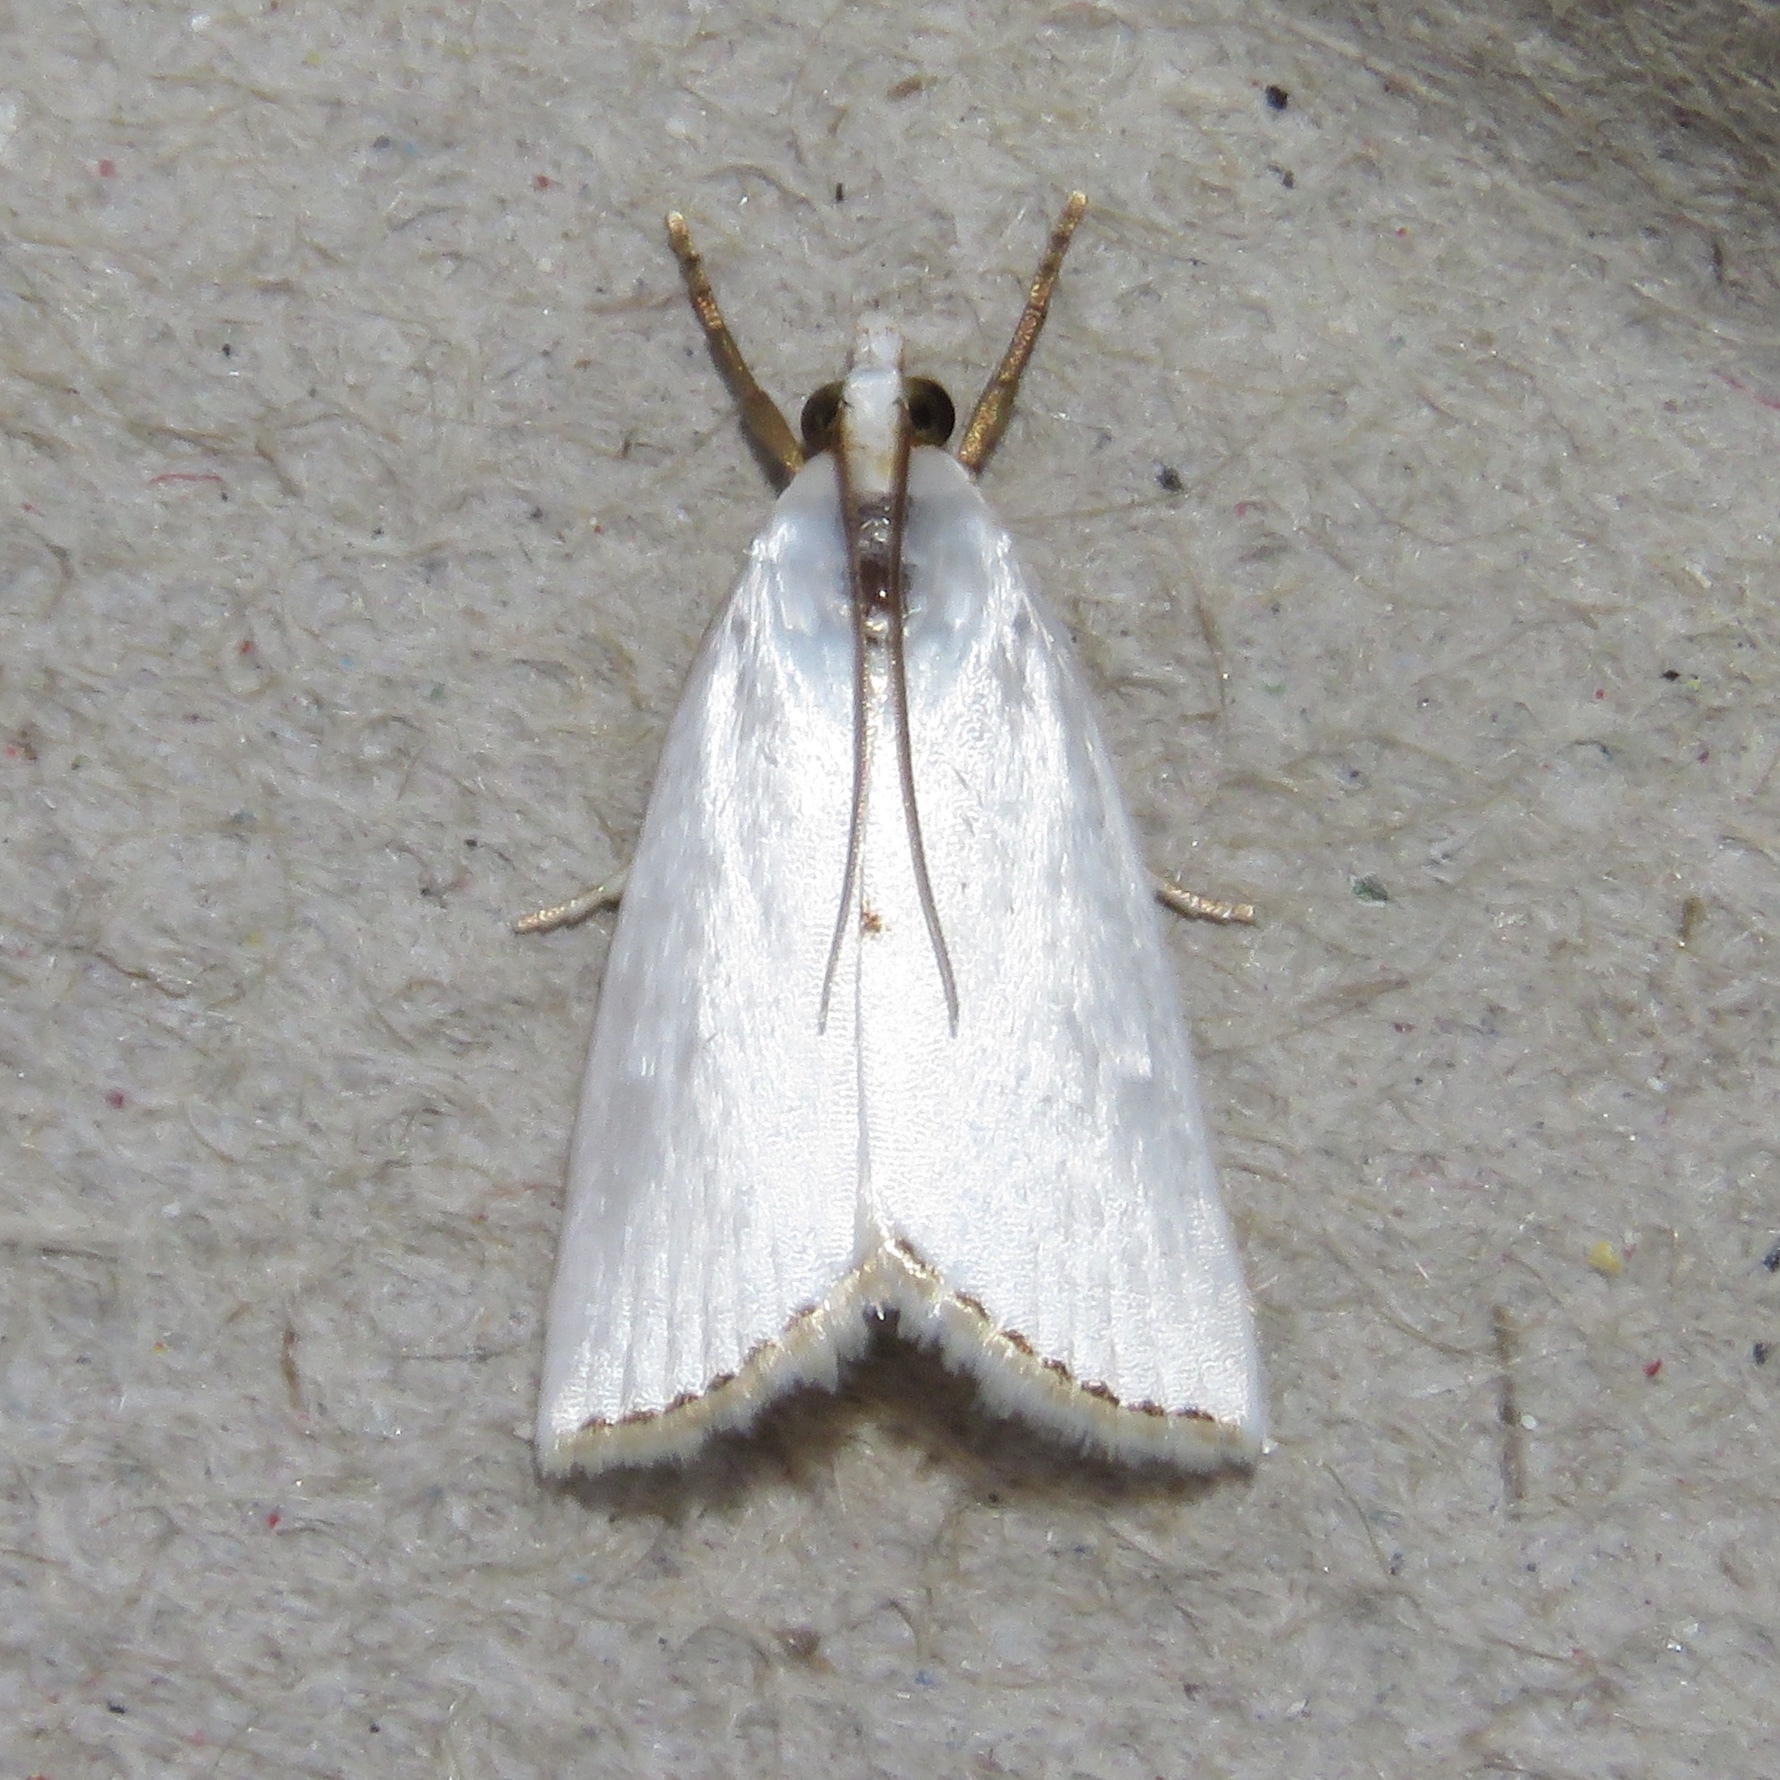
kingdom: Animalia
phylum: Arthropoda
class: Insecta
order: Lepidoptera
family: Crambidae
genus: Argyria
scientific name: Argyria nivalis
